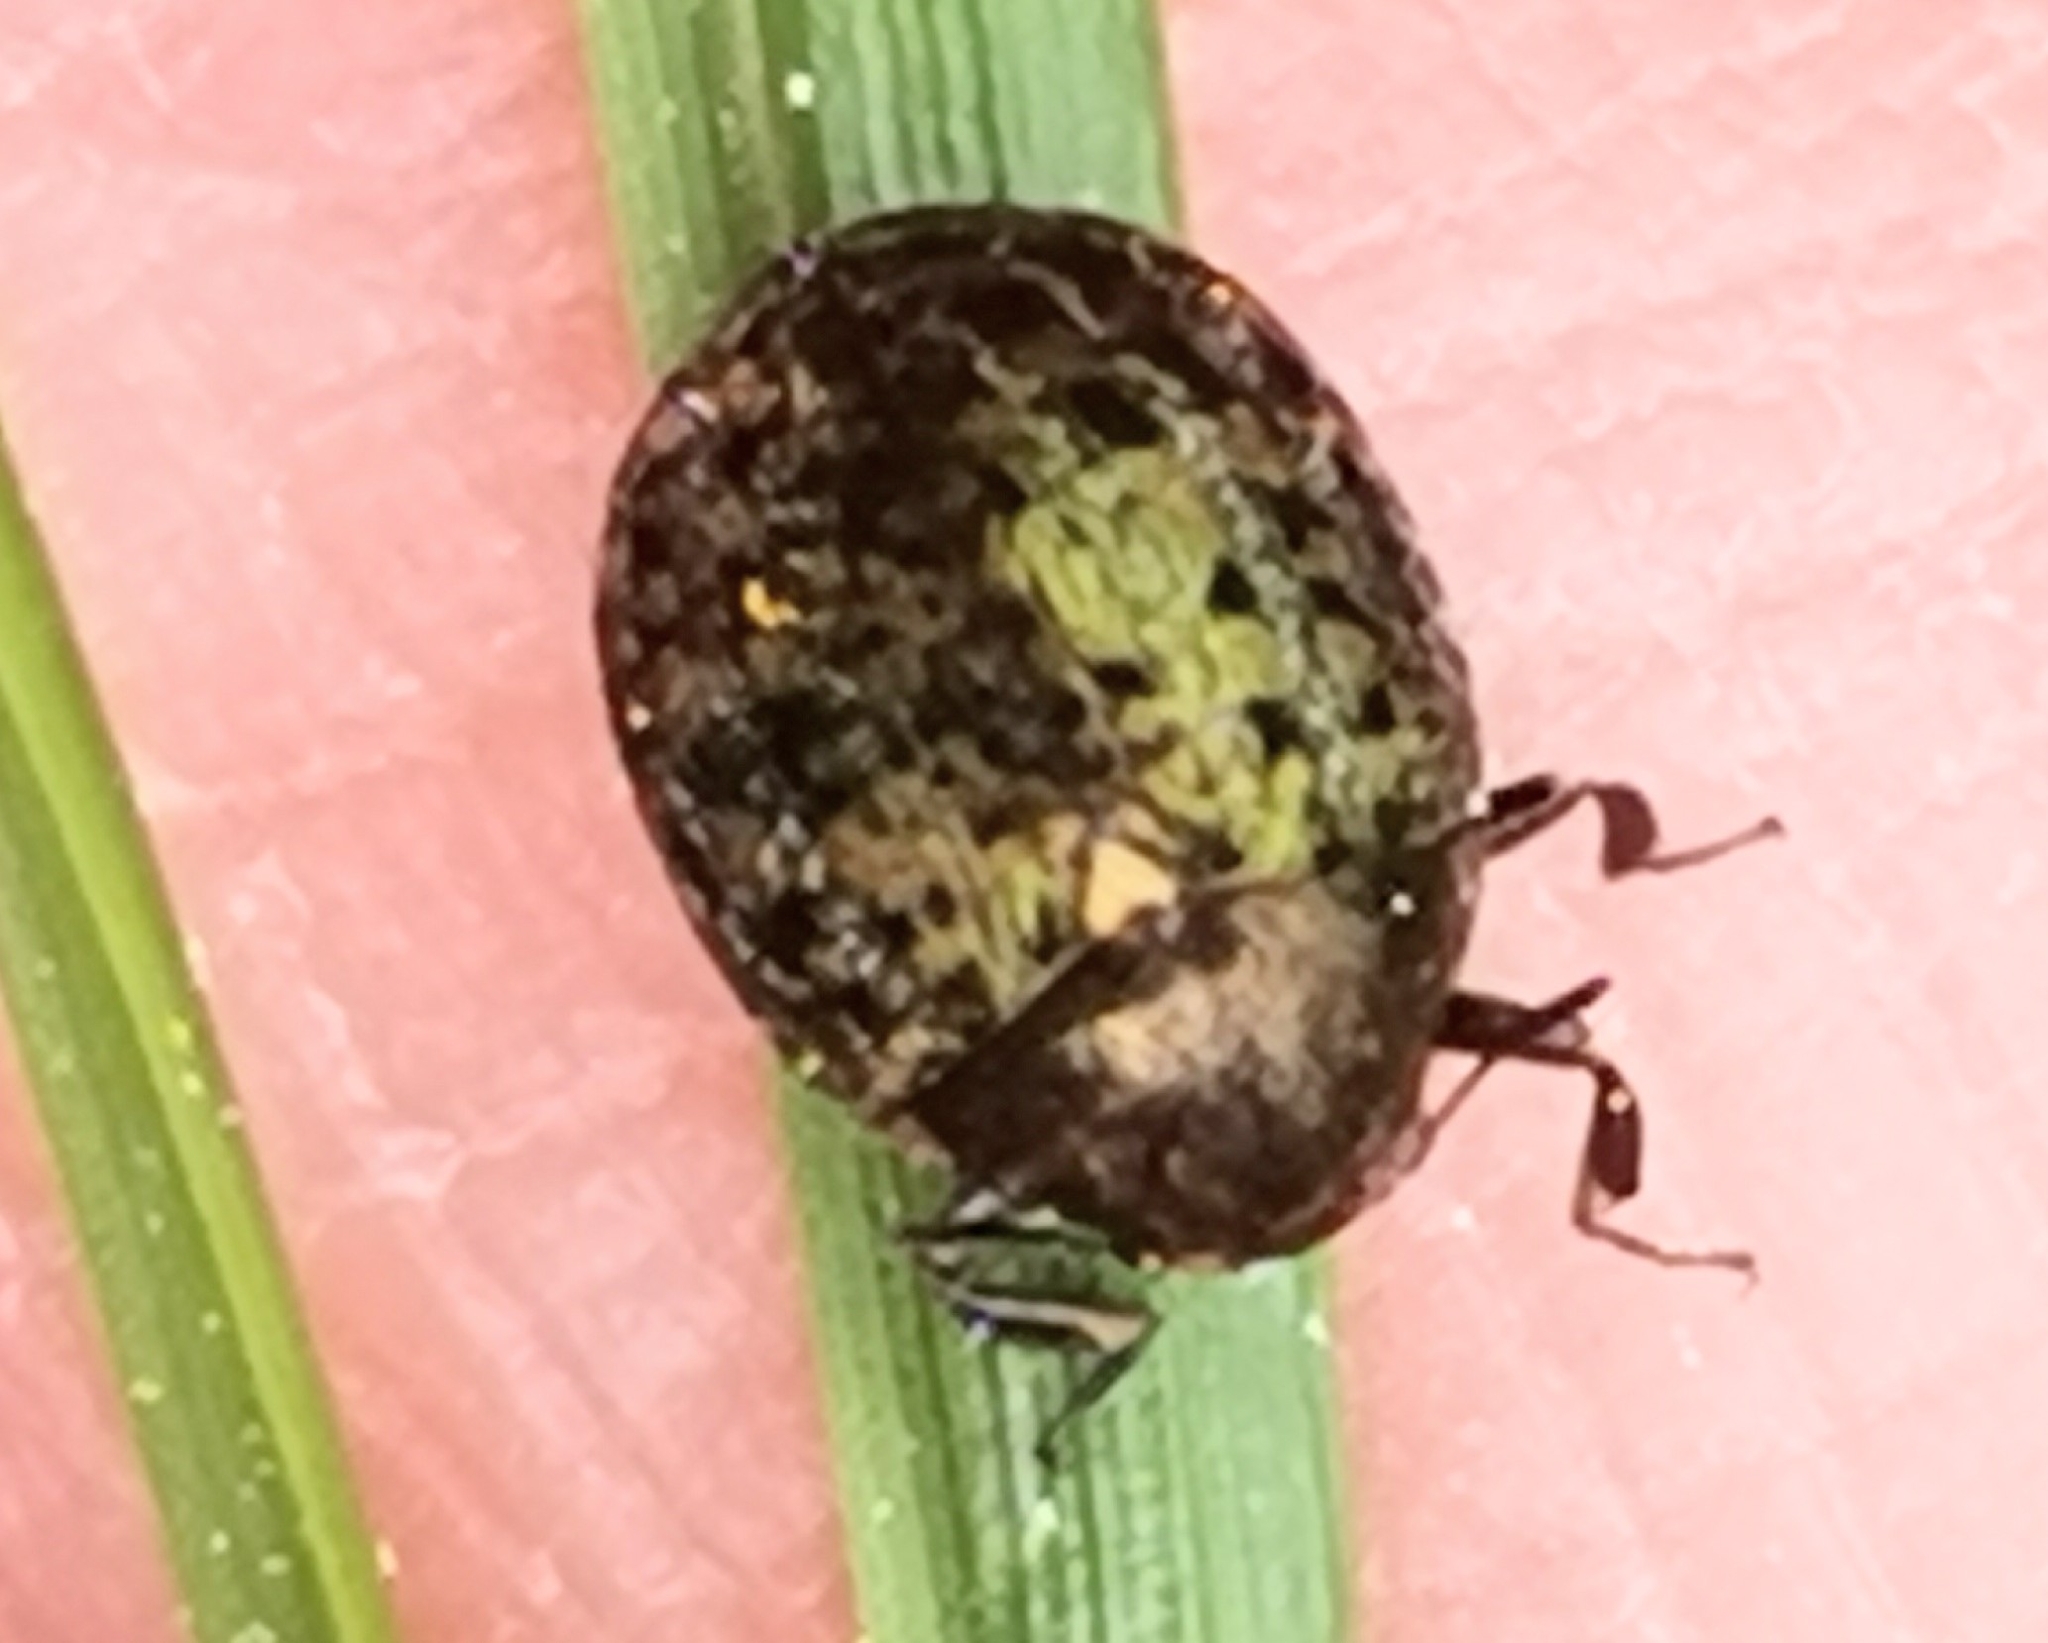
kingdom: Animalia
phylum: Arthropoda
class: Insecta
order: Coleoptera
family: Byrrhidae
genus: Cytilus
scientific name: Cytilus sericeus
